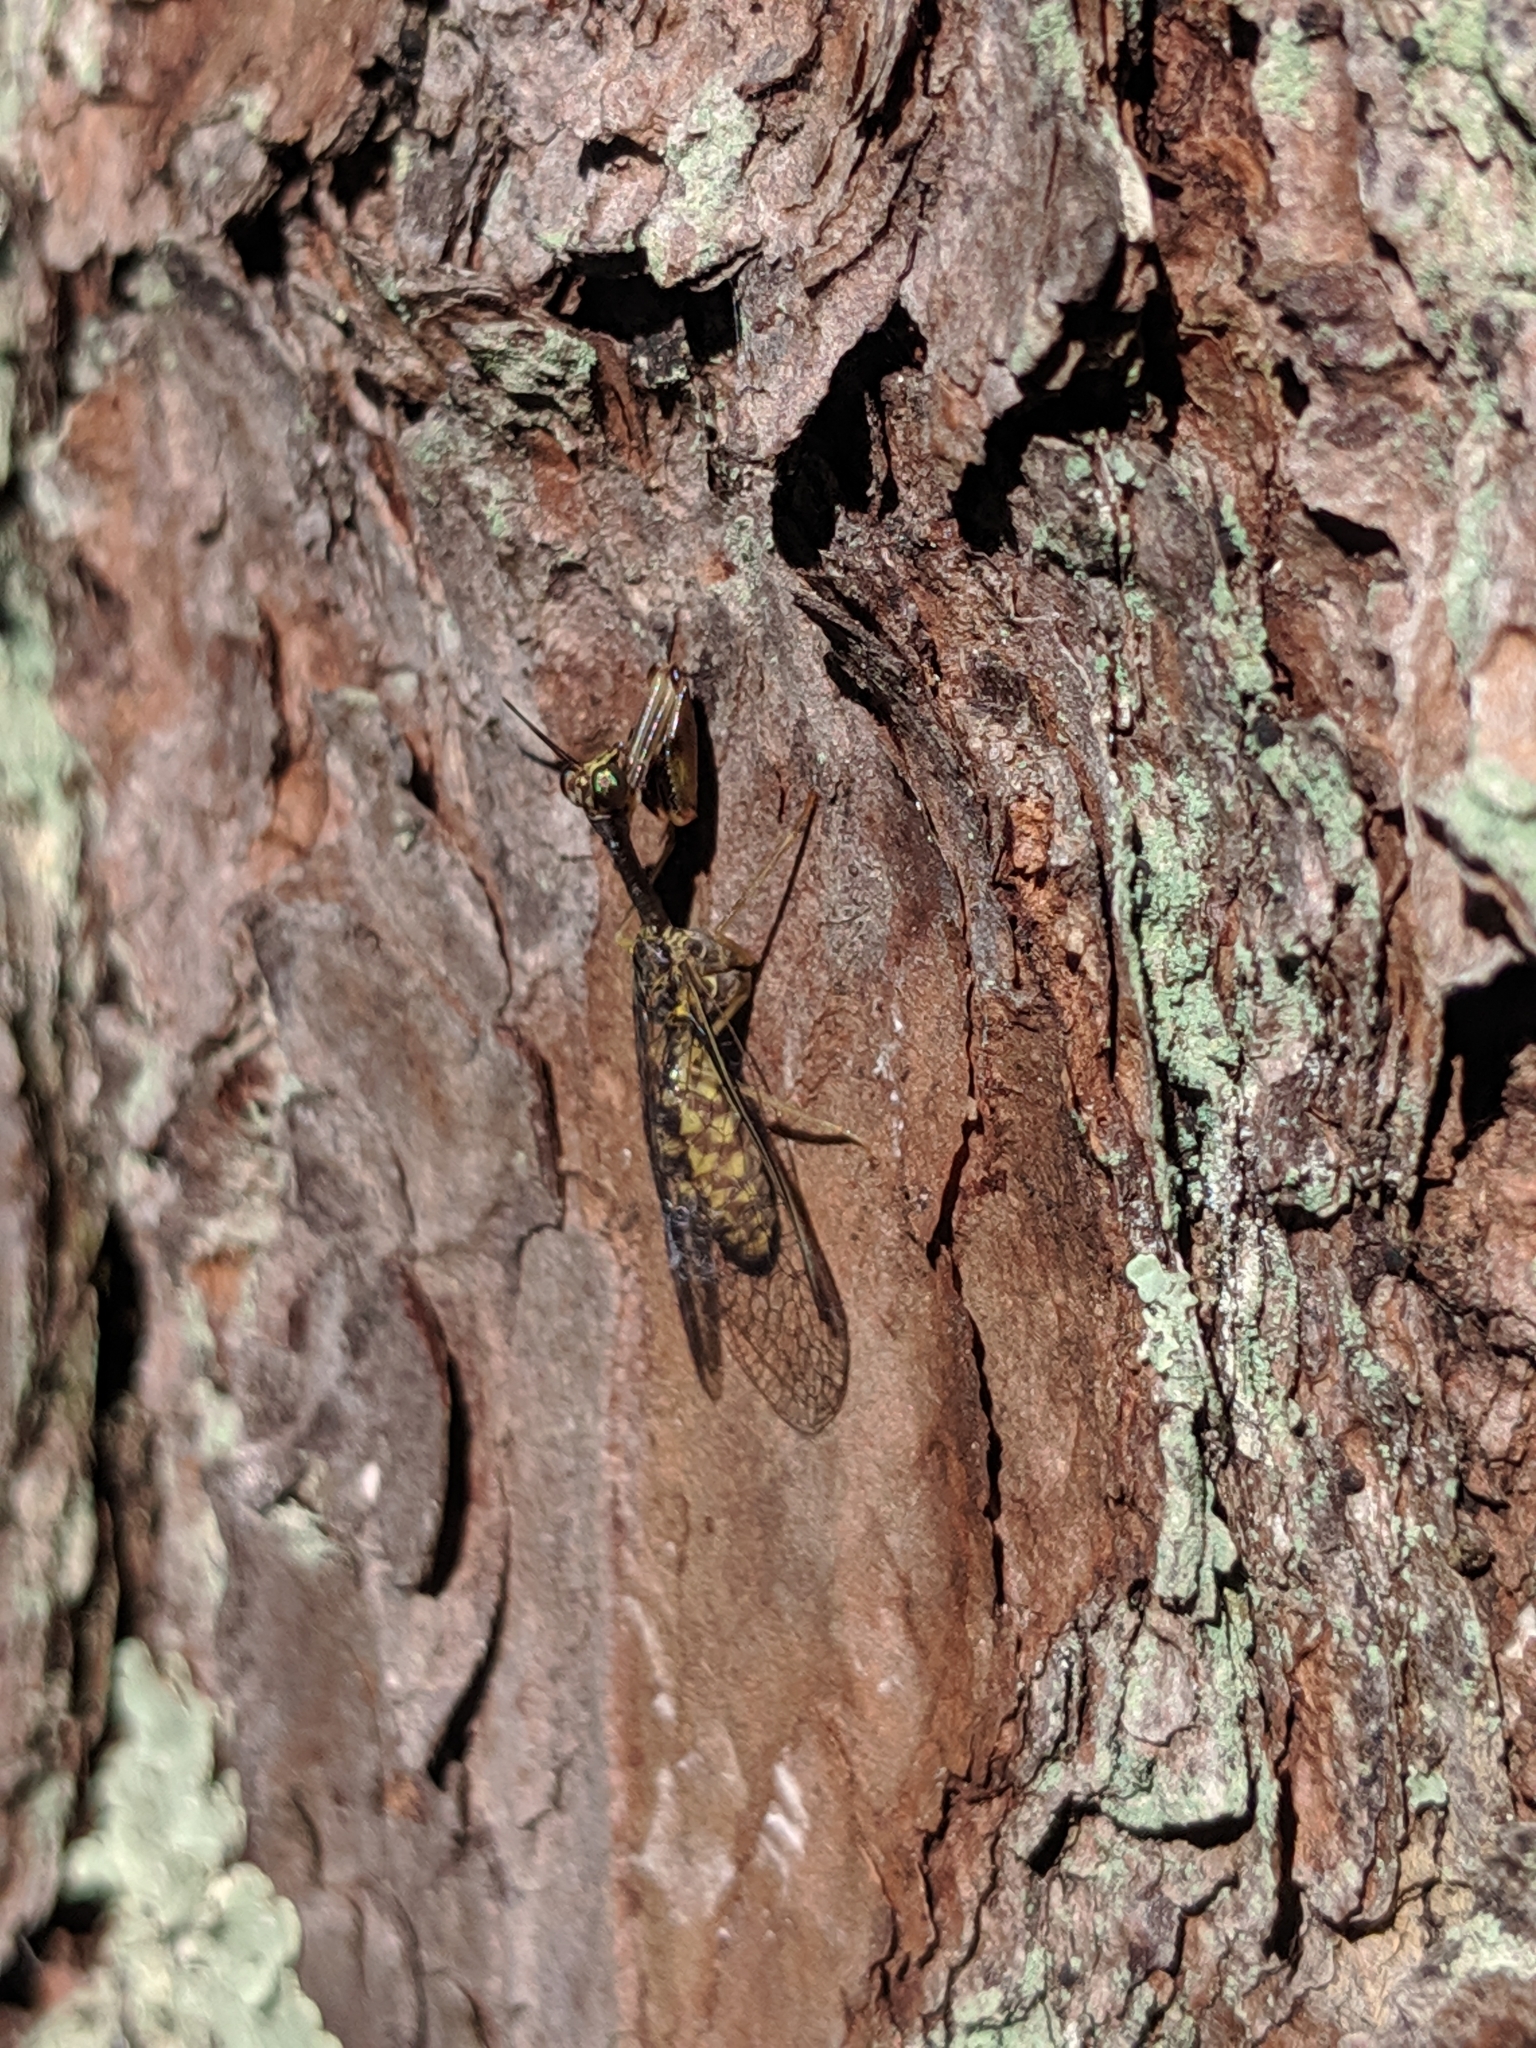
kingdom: Animalia
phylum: Arthropoda
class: Insecta
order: Neuroptera
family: Mantispidae
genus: Dicromantispa
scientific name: Dicromantispa sayi
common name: Say's mantidfly
